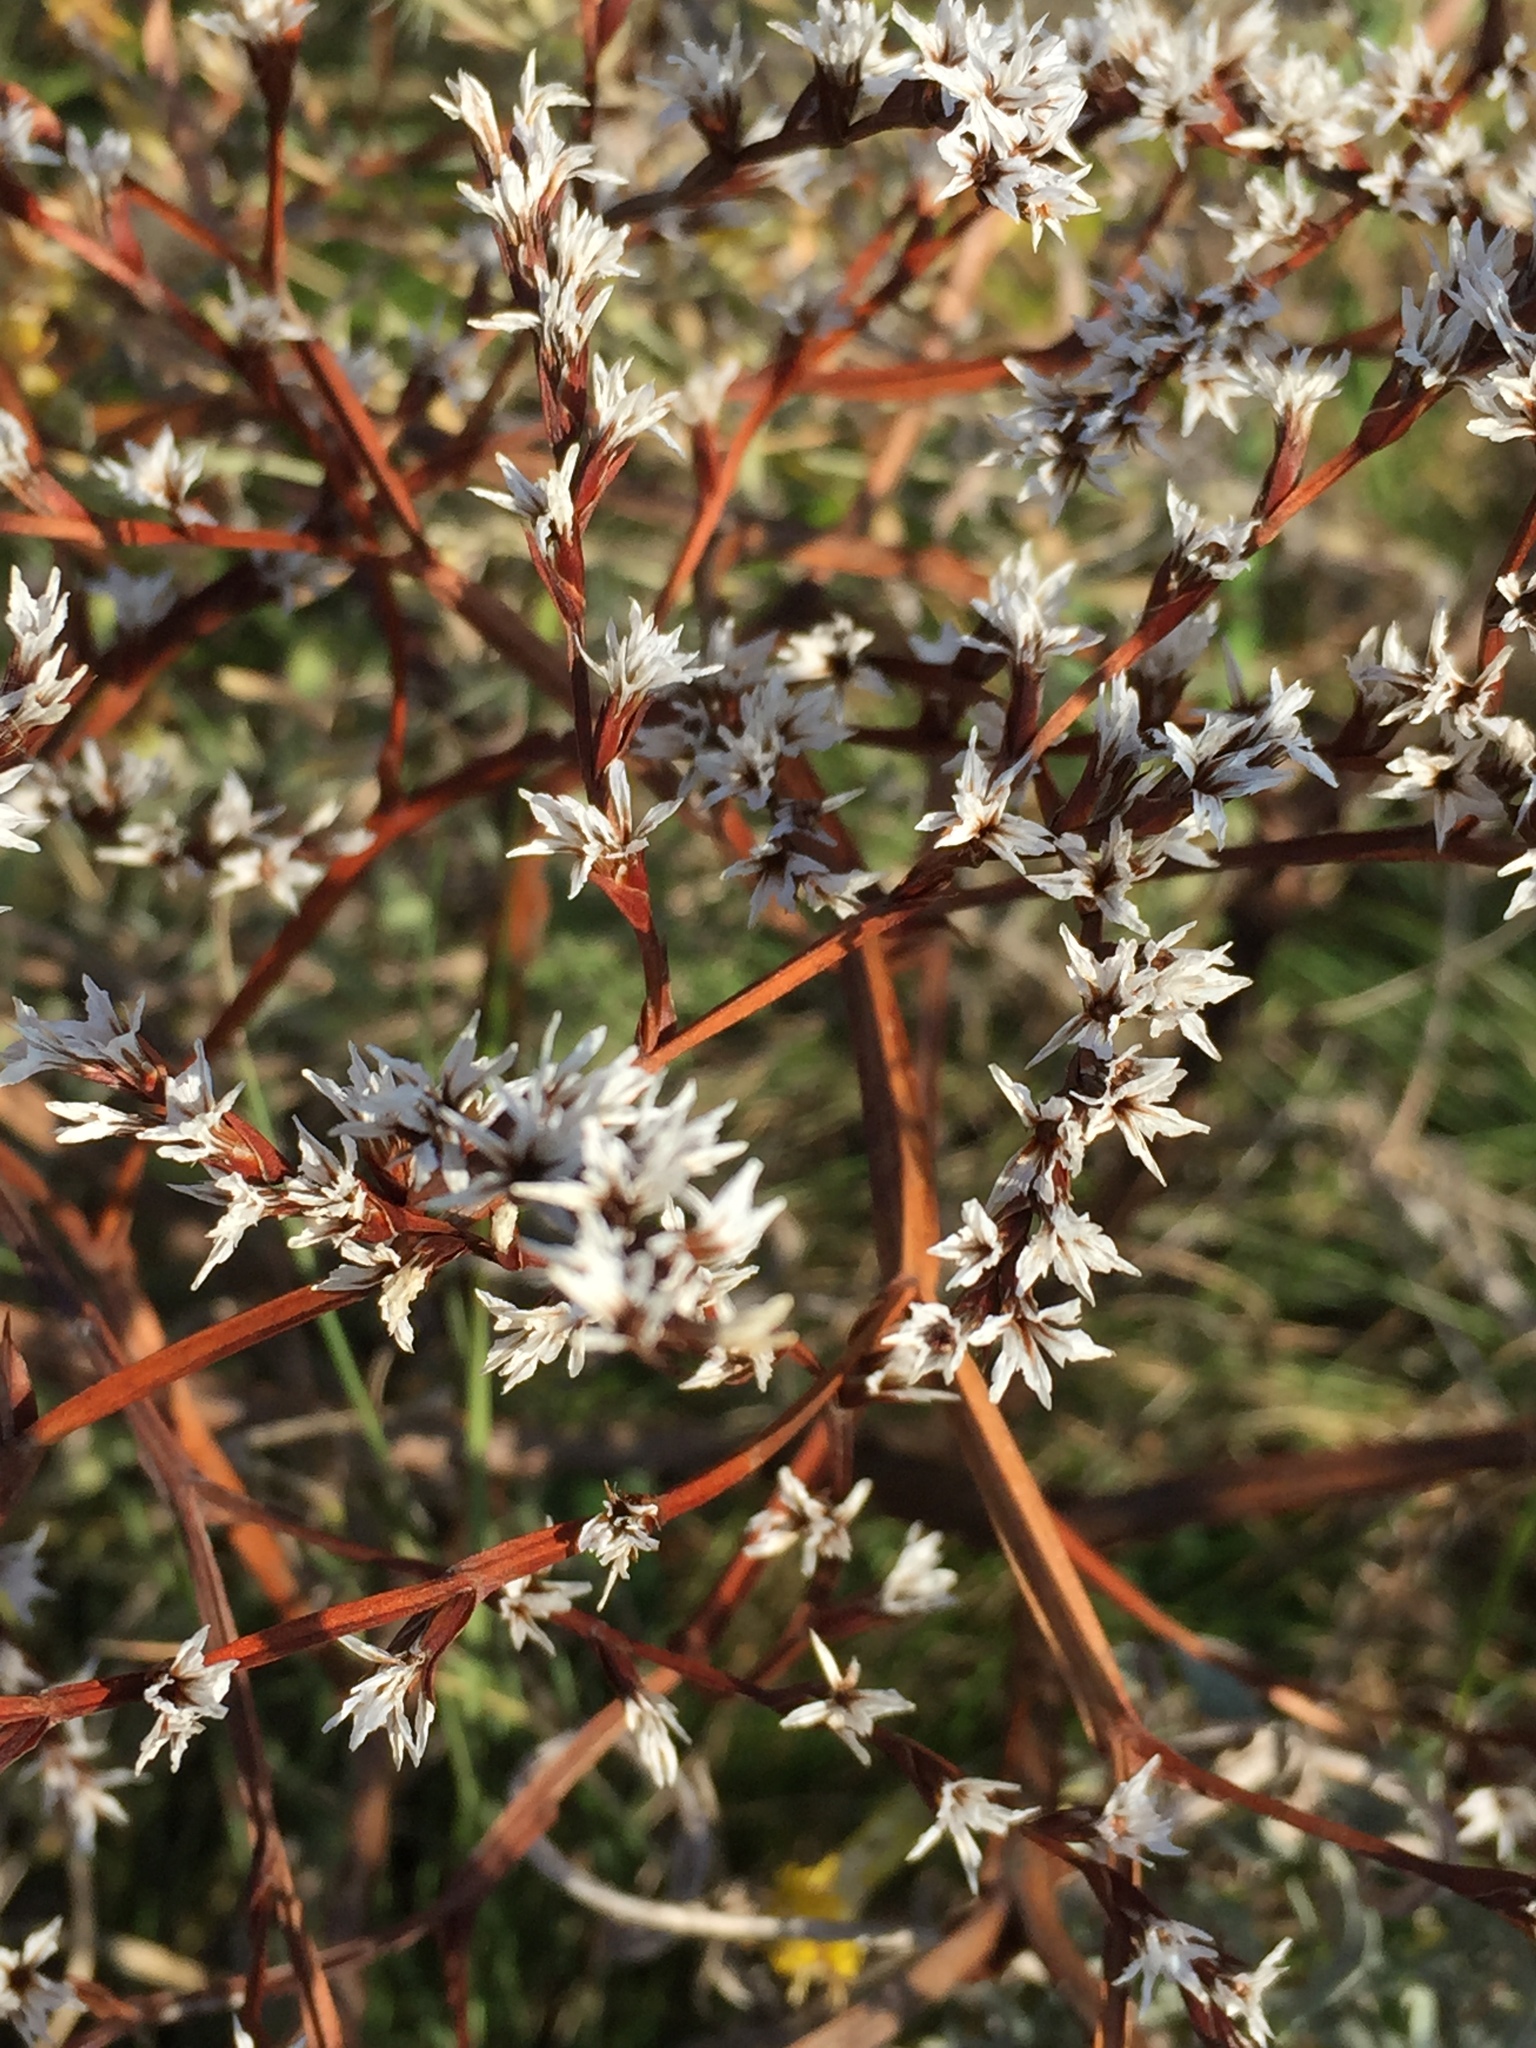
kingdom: Plantae
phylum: Tracheophyta
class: Magnoliopsida
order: Caryophyllales
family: Plumbaginaceae
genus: Goniolimon
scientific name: Goniolimon tataricum
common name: Statice
